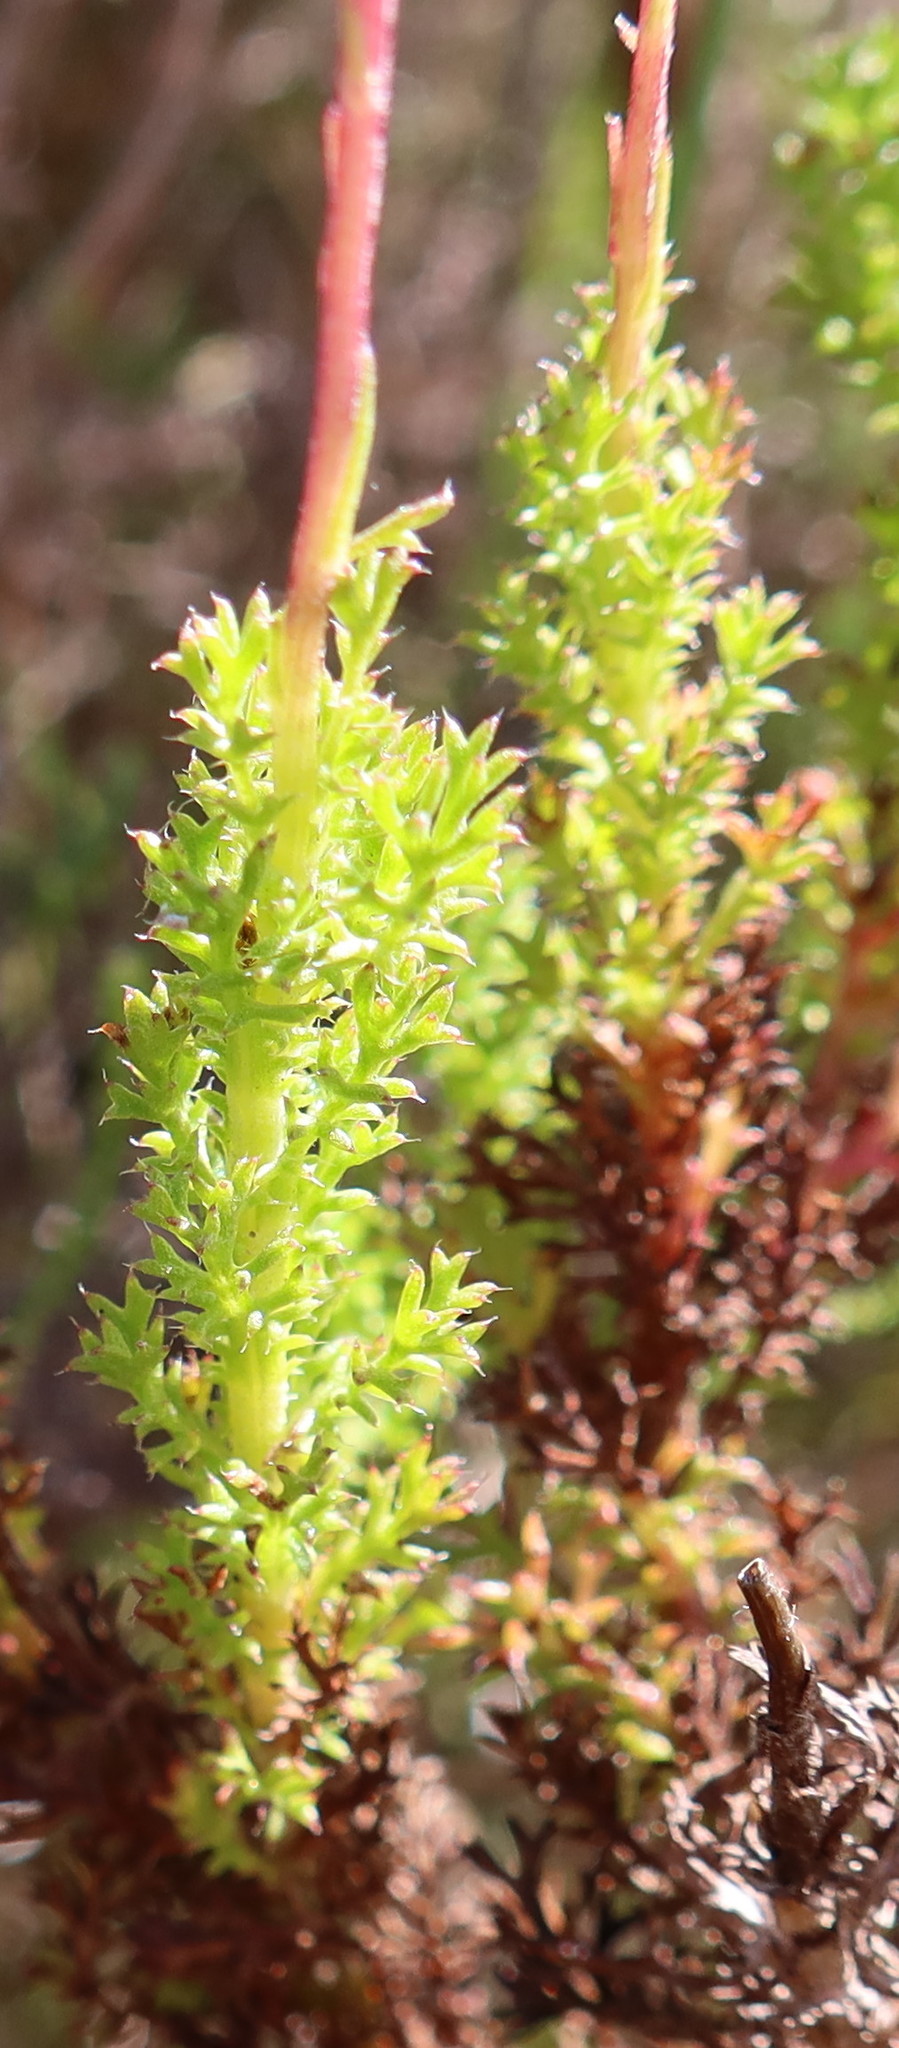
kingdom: Plantae
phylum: Tracheophyta
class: Magnoliopsida
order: Asterales
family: Asteraceae
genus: Ursinia
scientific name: Ursinia dentata
